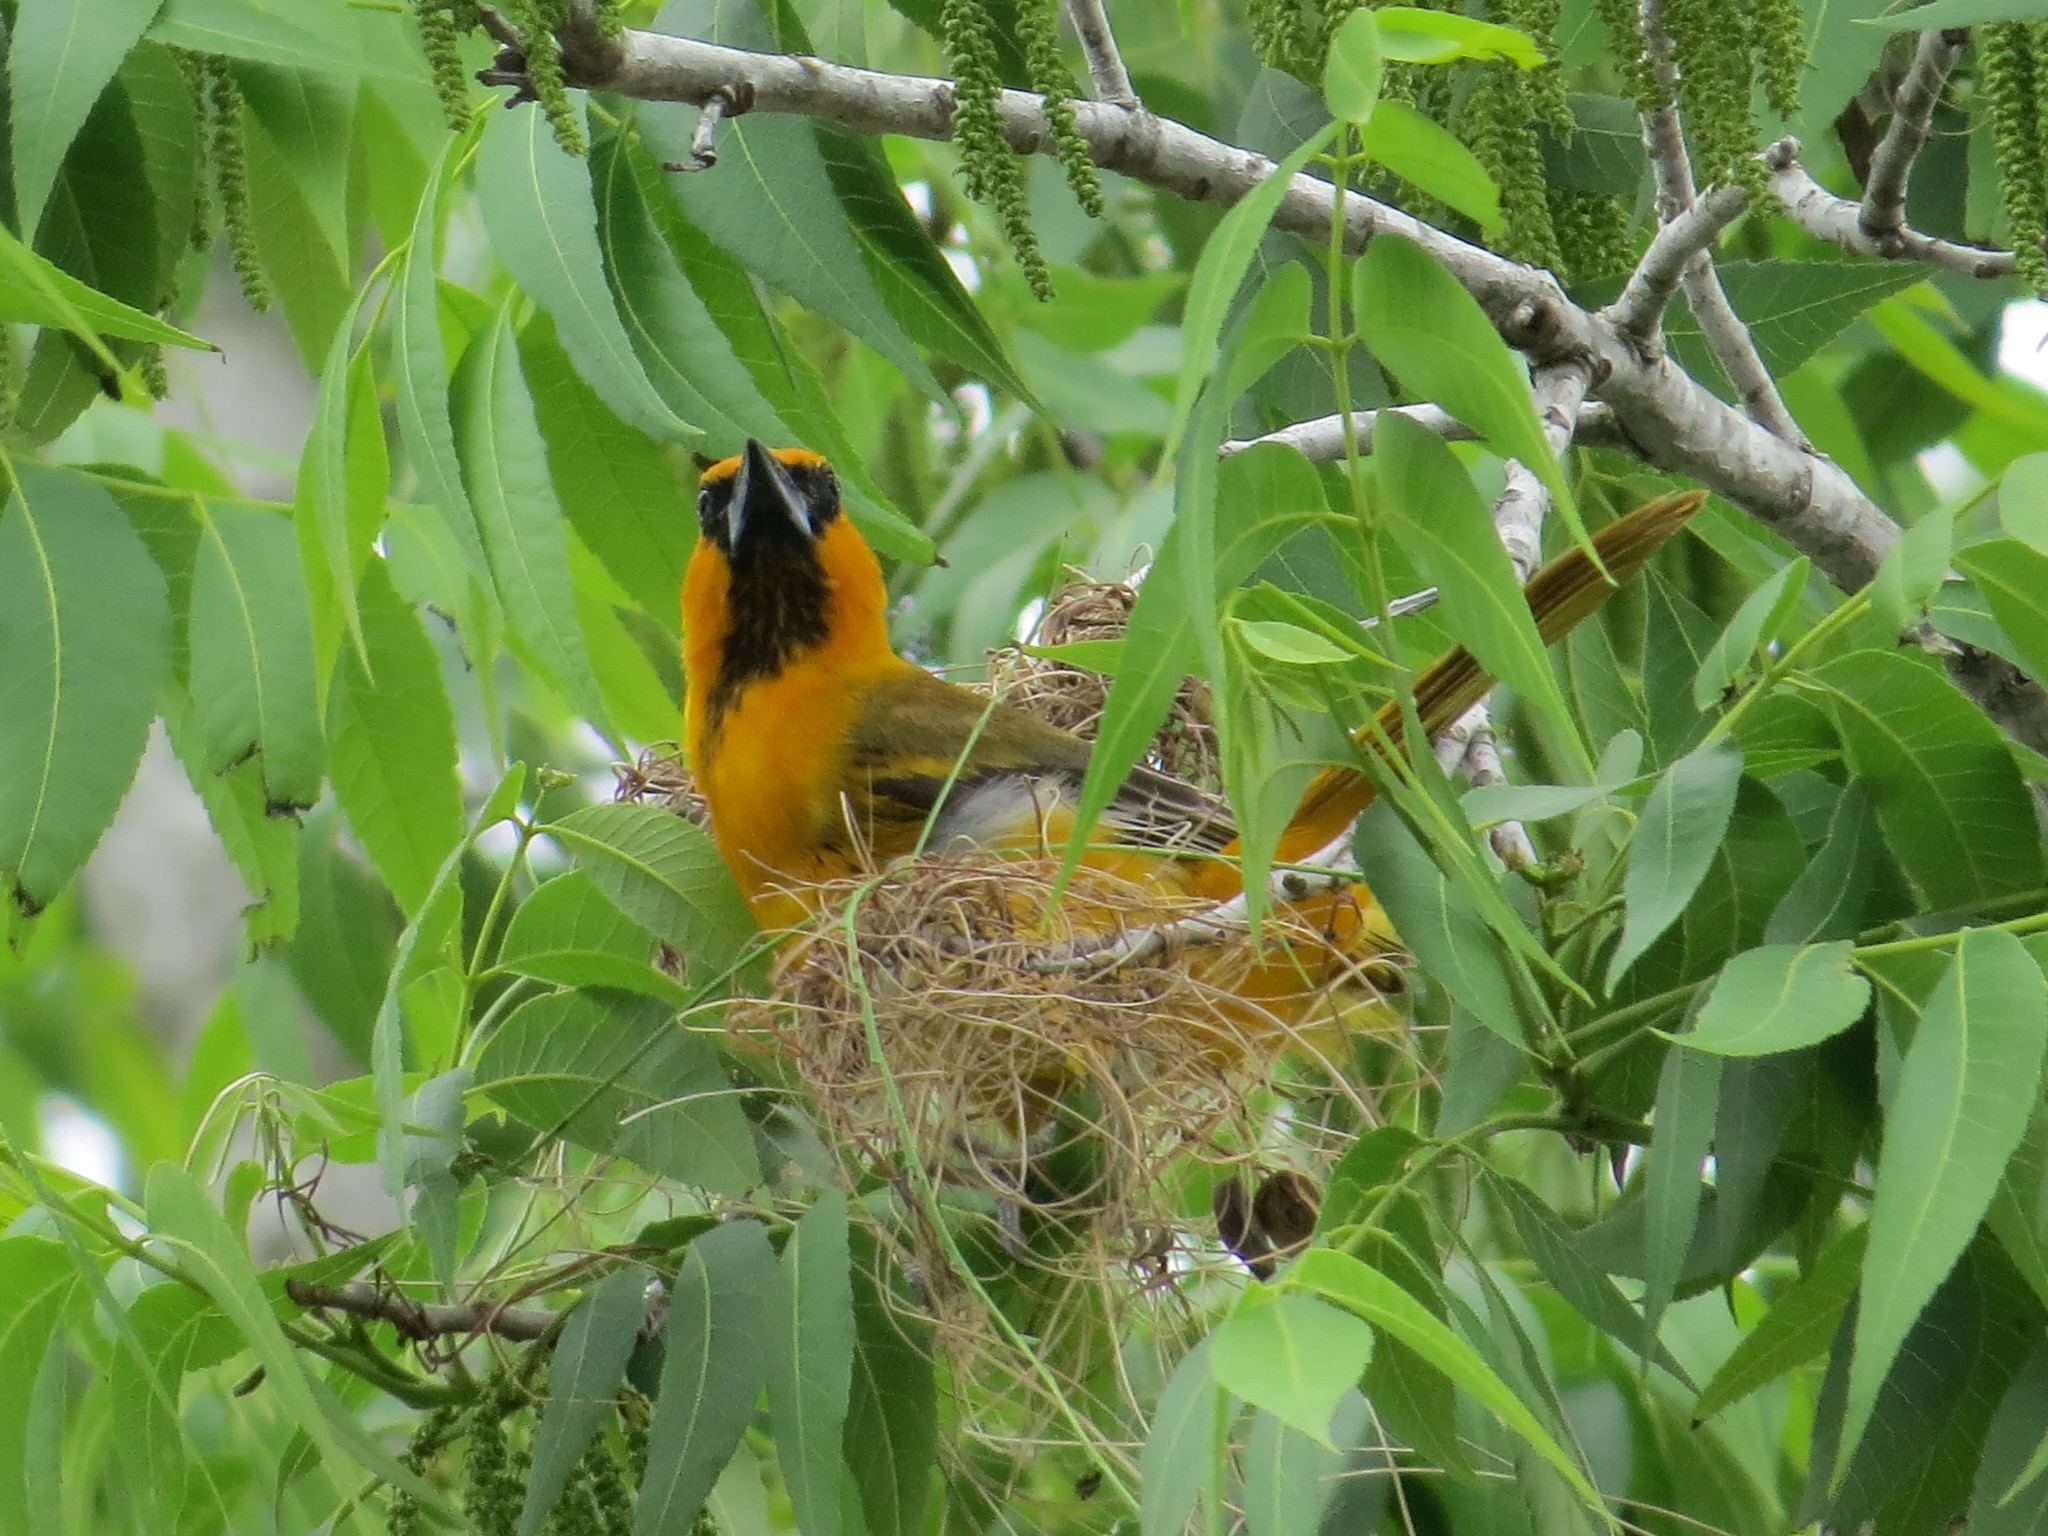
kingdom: Animalia
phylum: Chordata
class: Aves
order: Passeriformes
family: Icteridae
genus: Icterus
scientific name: Icterus gularis
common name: Altamira oriole
